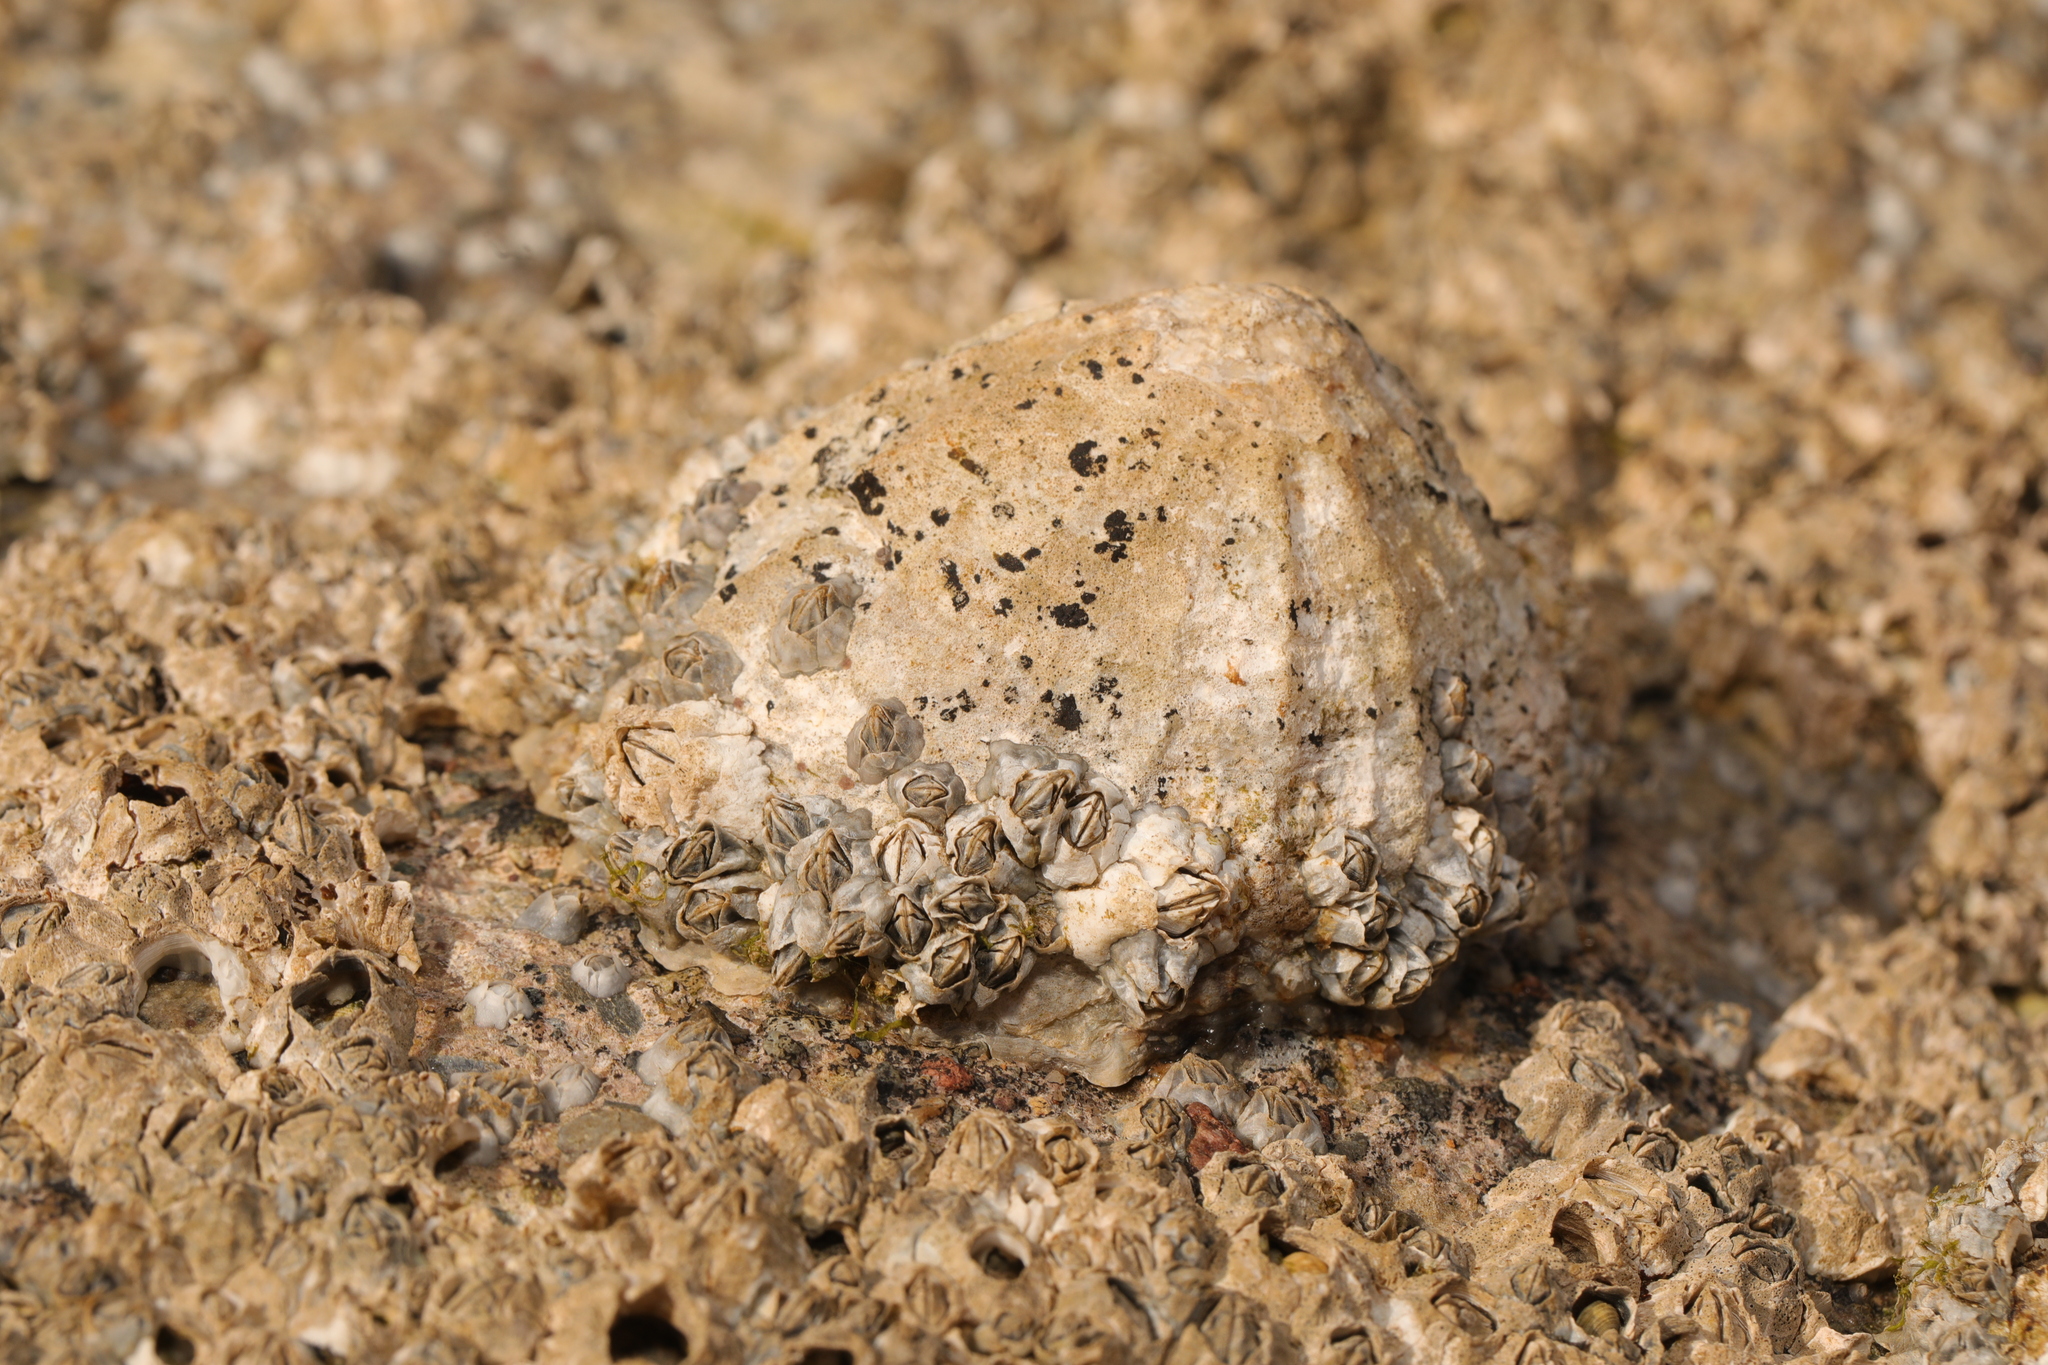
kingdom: Animalia
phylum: Mollusca
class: Gastropoda
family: Patellidae
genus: Patella
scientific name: Patella vulgata
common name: Common limpet
